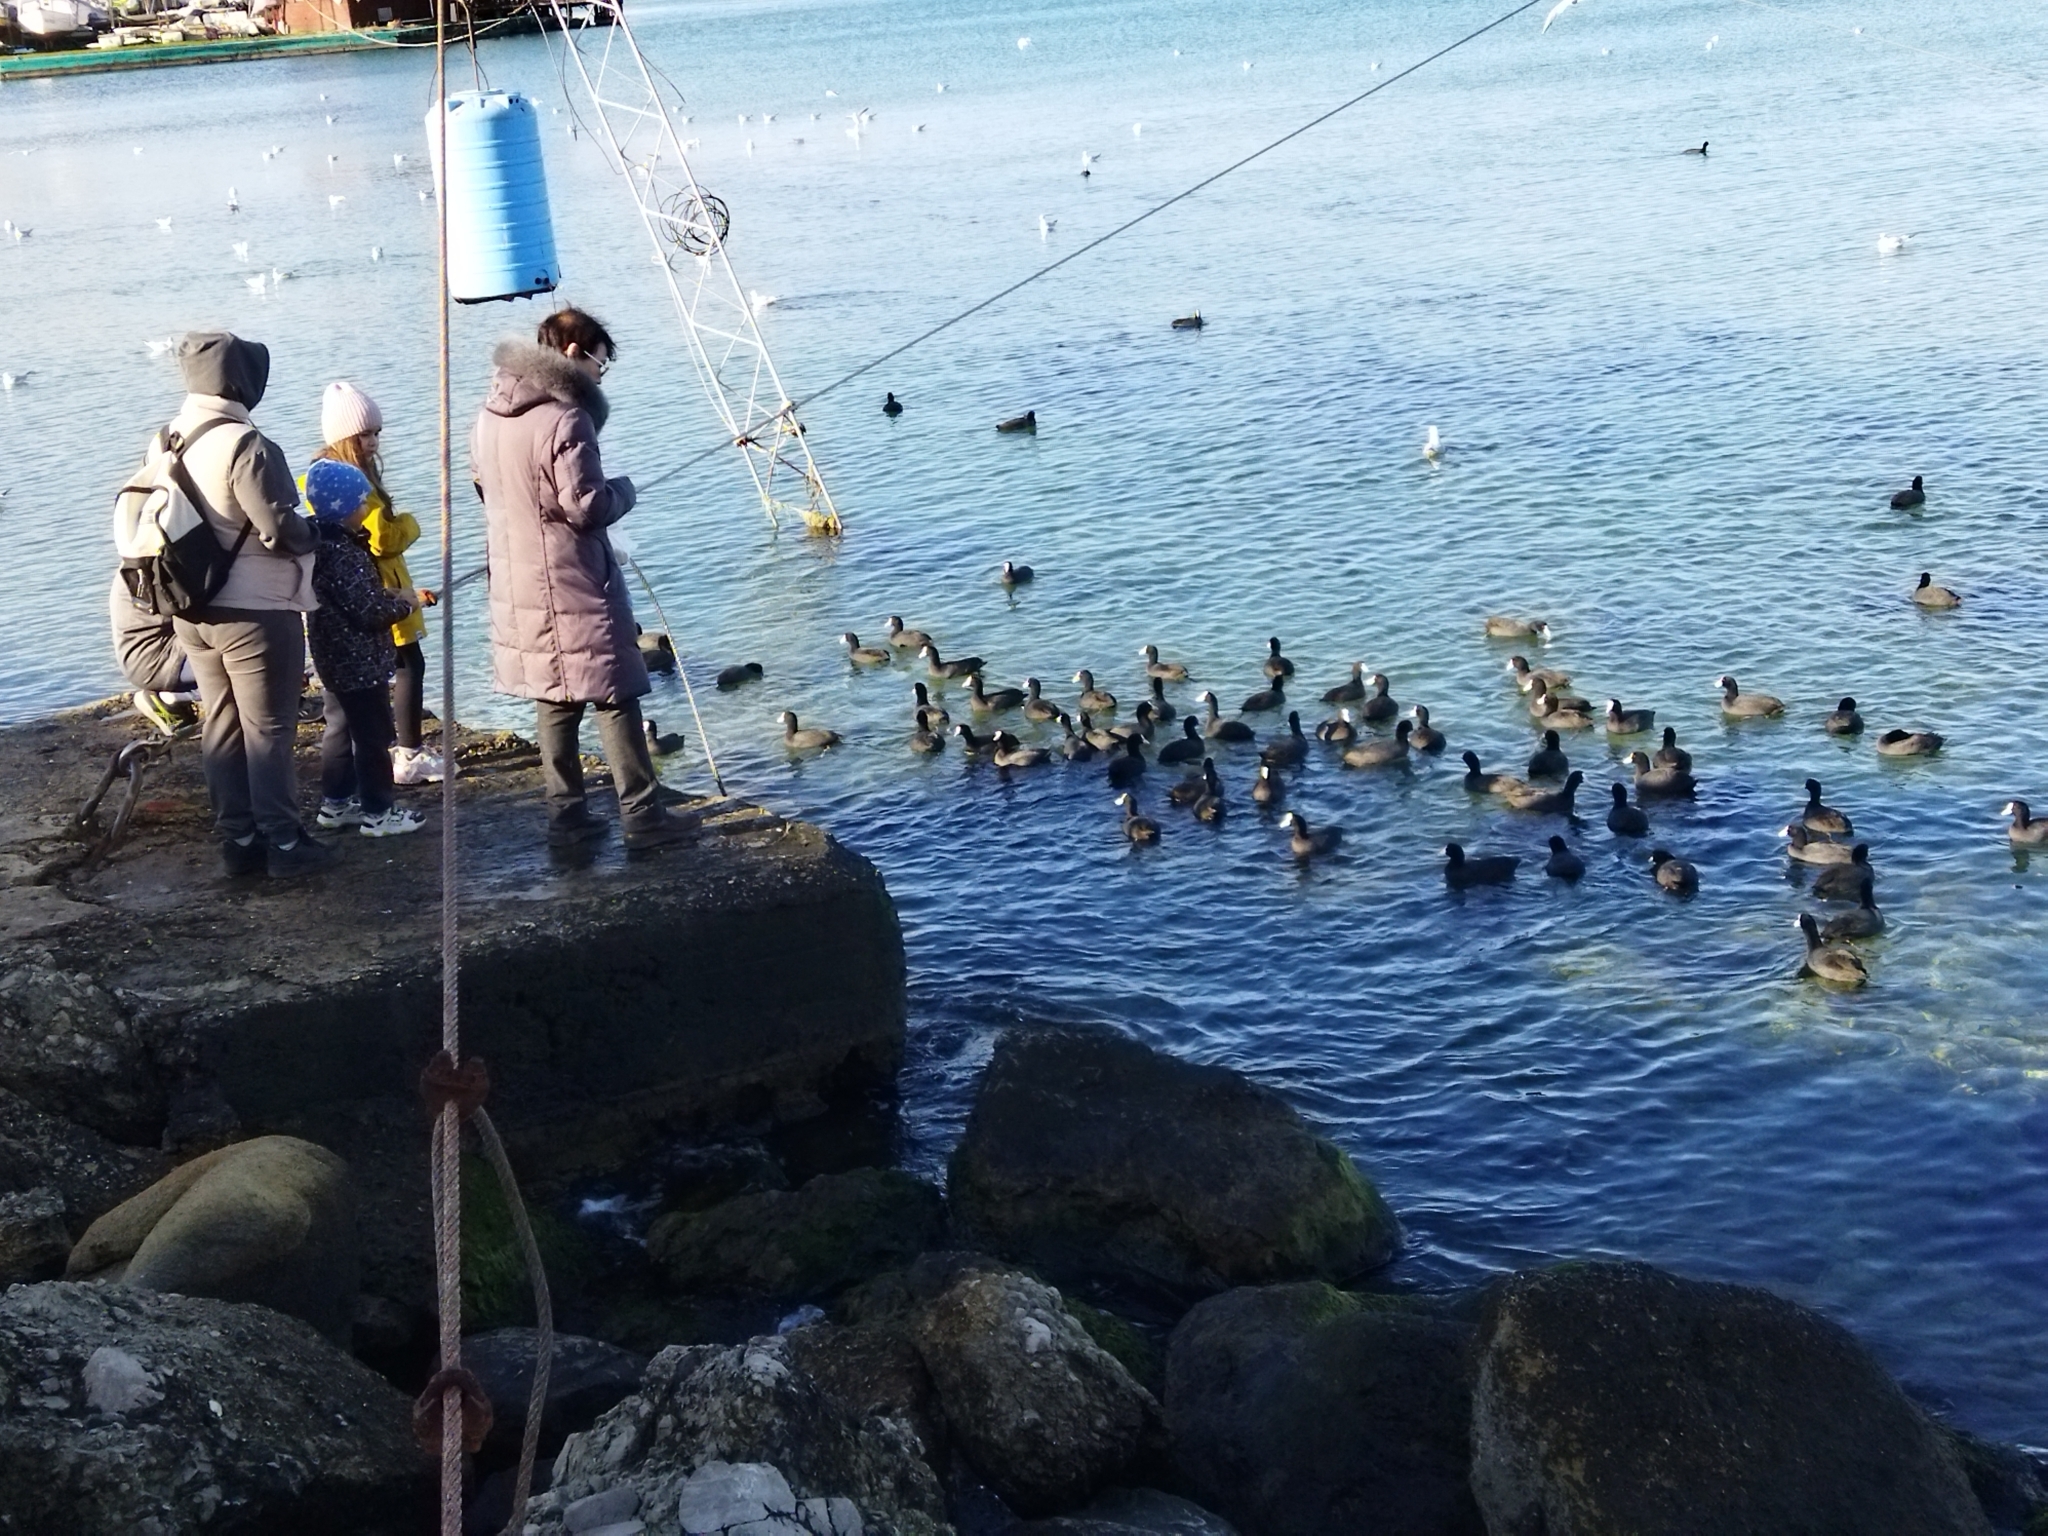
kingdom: Animalia
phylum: Chordata
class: Aves
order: Gruiformes
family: Rallidae
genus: Fulica
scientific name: Fulica atra
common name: Eurasian coot
